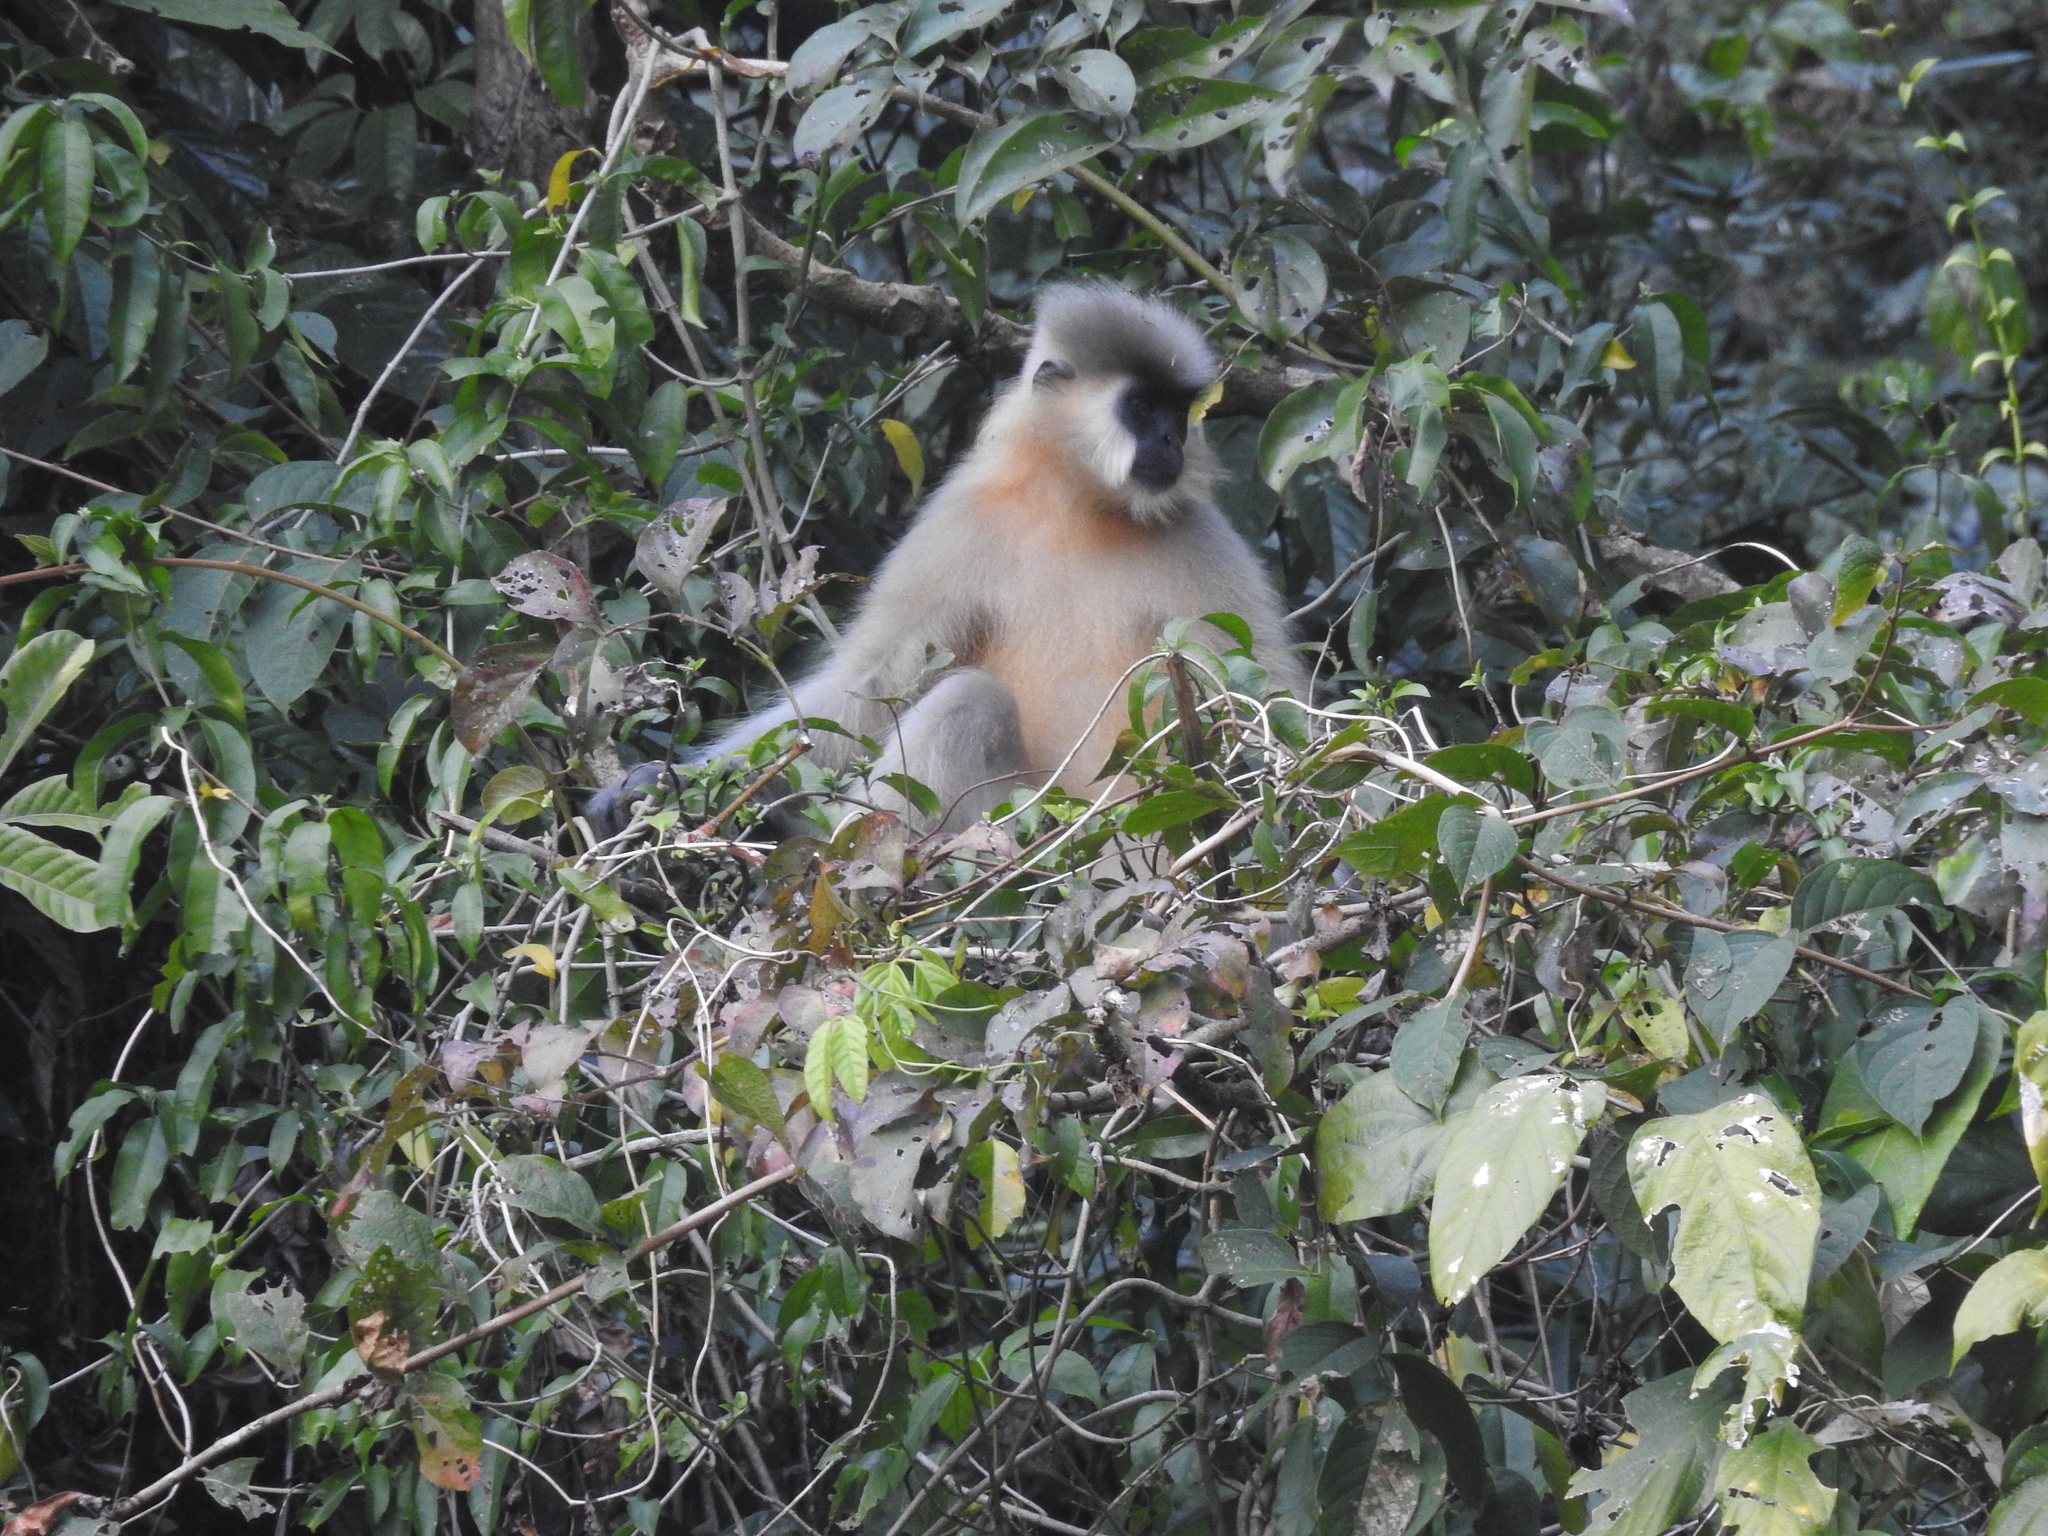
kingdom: Animalia
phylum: Chordata
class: Mammalia
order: Primates
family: Cercopithecidae
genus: Trachypithecus
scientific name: Trachypithecus pileatus
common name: Capped langur
